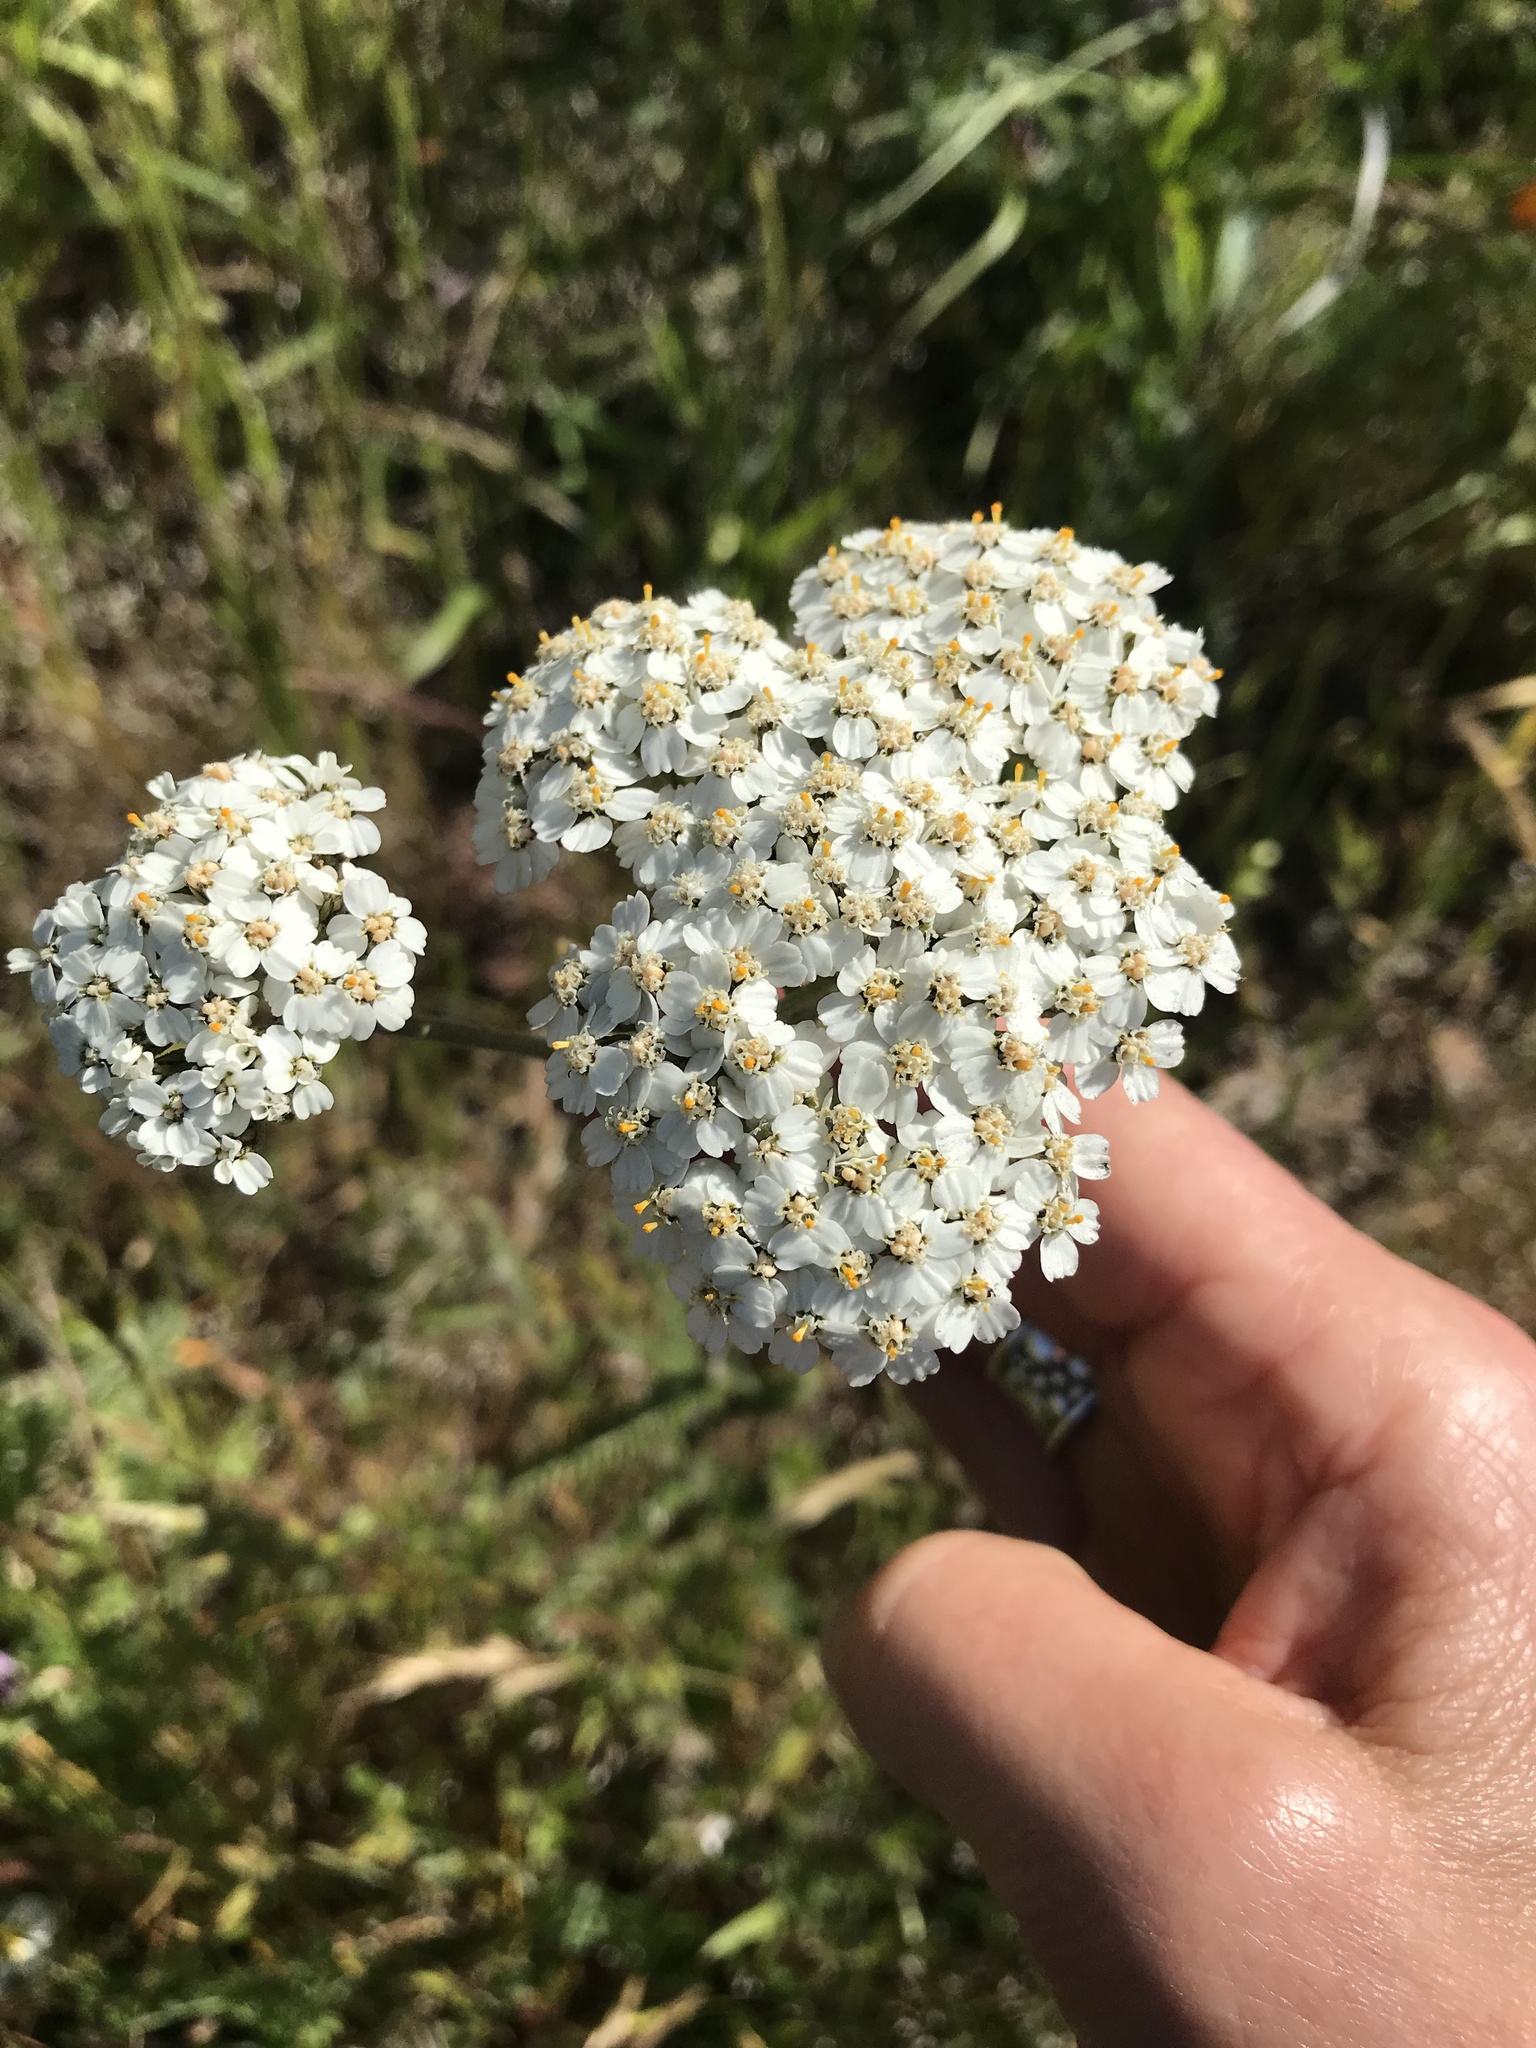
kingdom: Plantae
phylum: Tracheophyta
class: Magnoliopsida
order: Asterales
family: Asteraceae
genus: Achillea
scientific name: Achillea millefolium
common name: Yarrow
